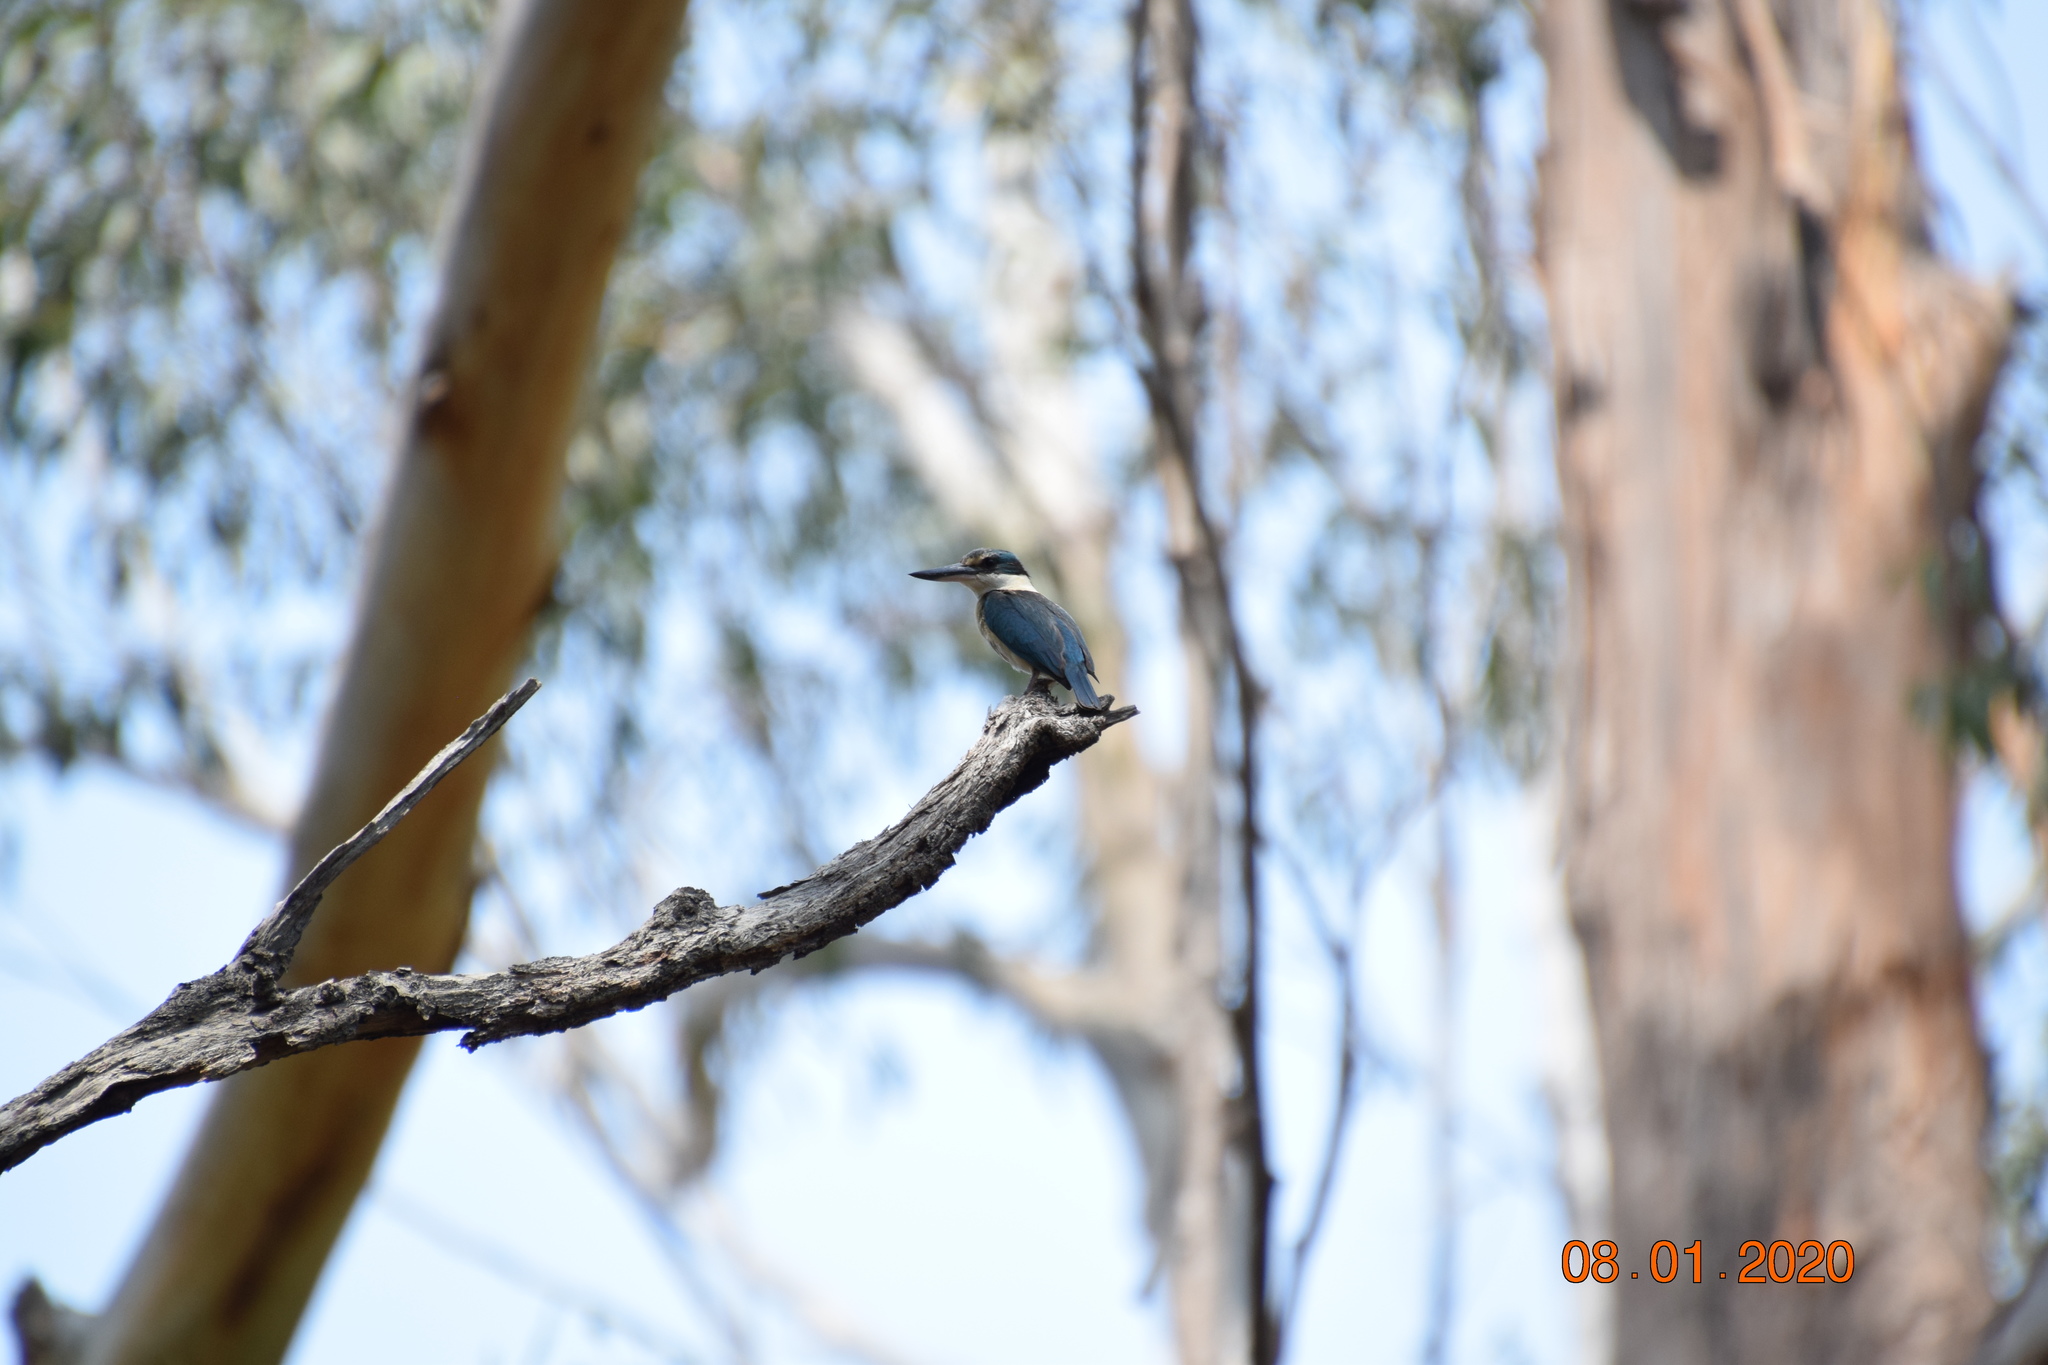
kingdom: Animalia
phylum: Chordata
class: Aves
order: Coraciiformes
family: Alcedinidae
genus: Todiramphus
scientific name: Todiramphus sanctus
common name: Sacred kingfisher
